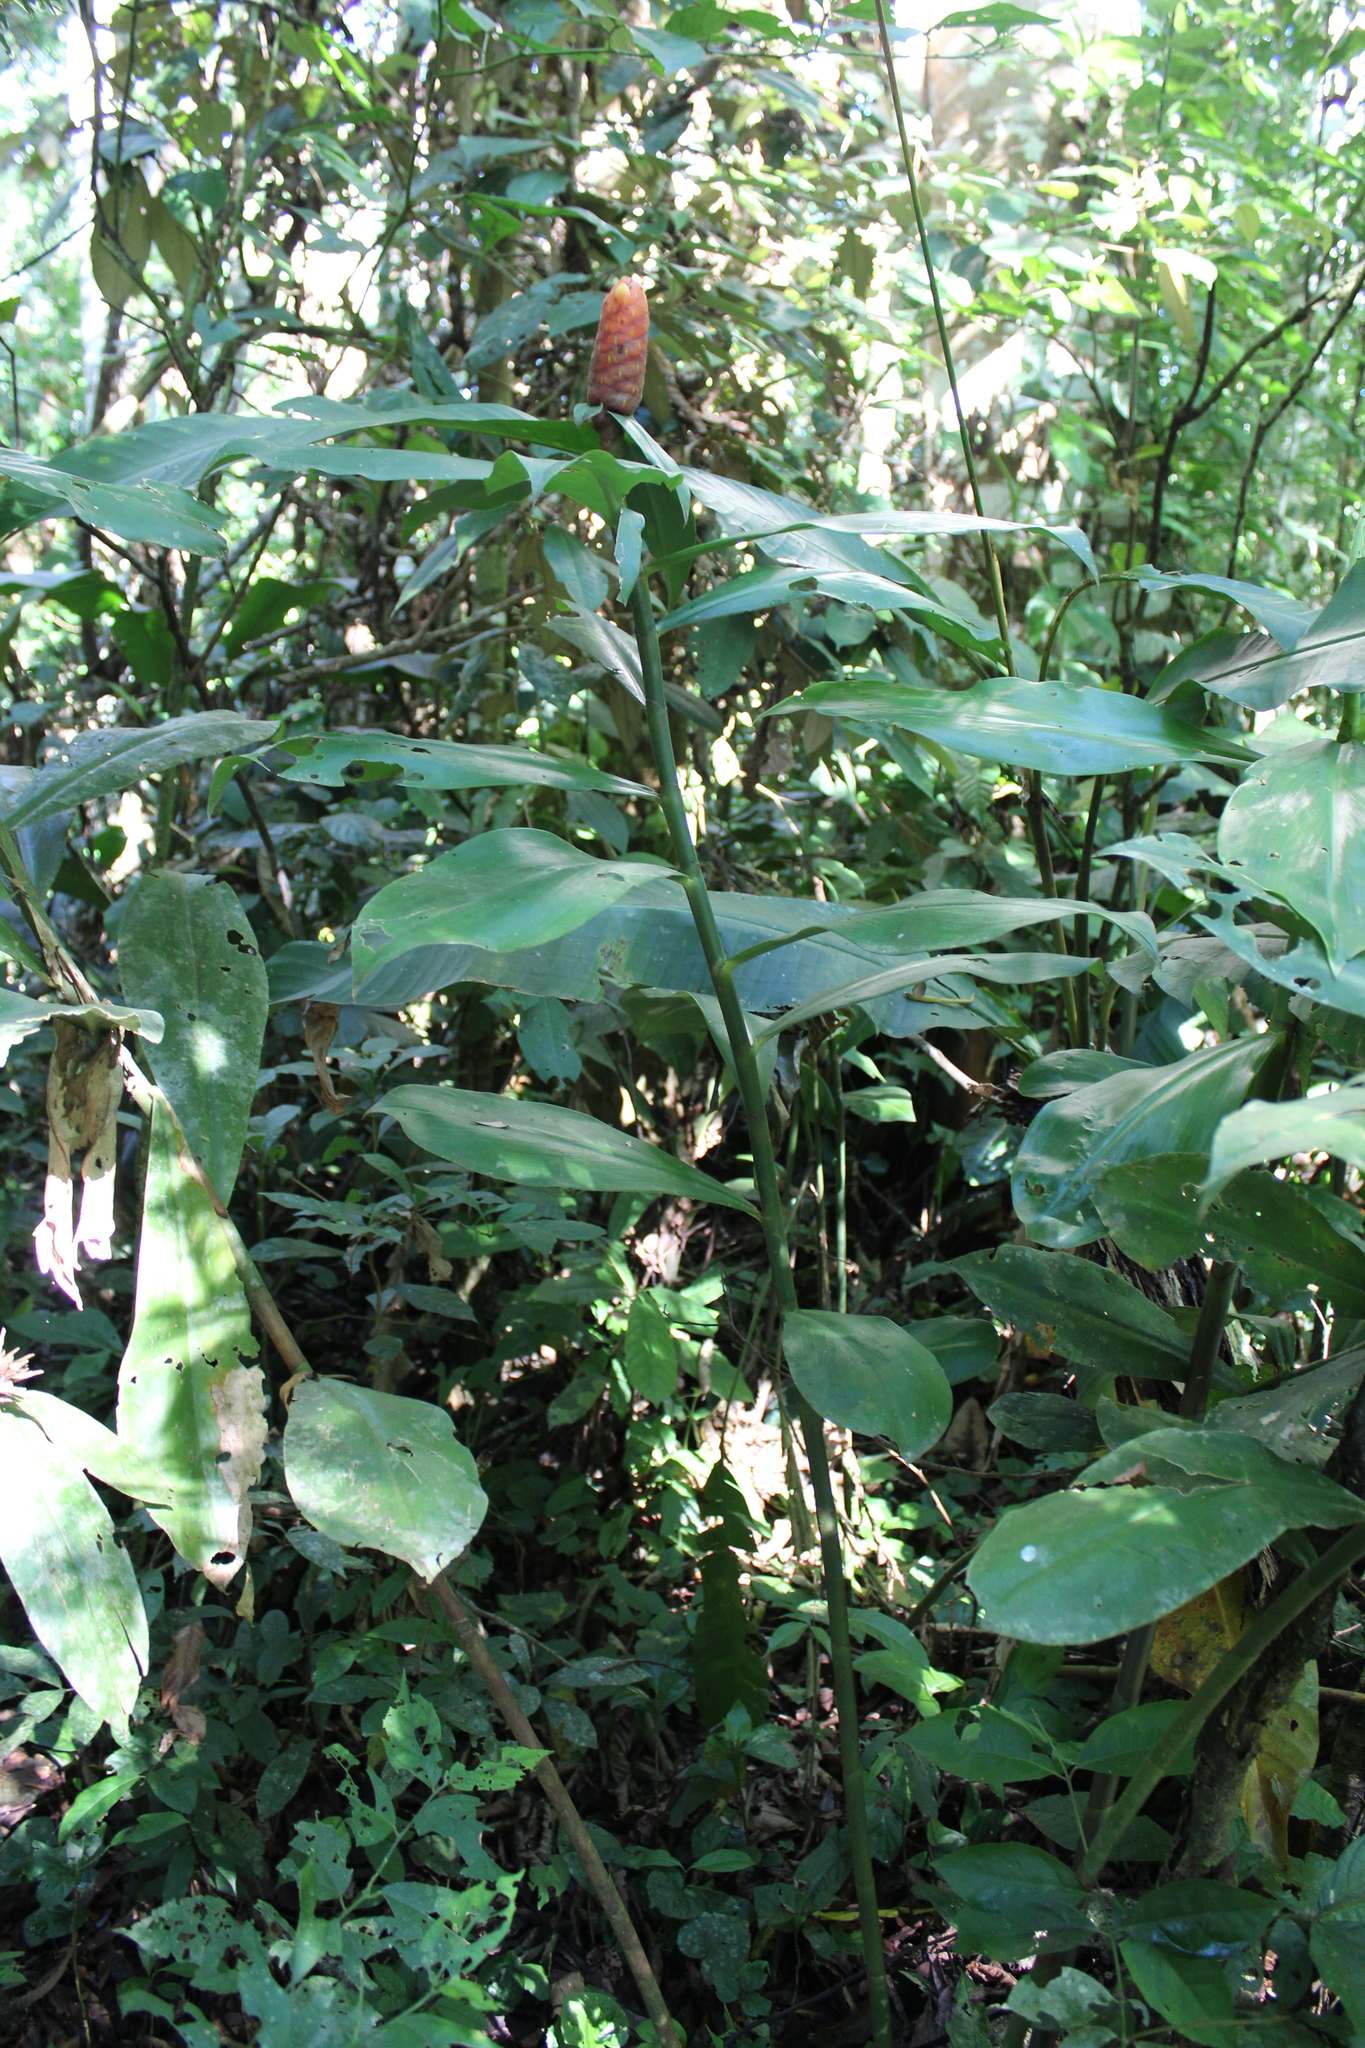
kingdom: Plantae
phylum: Tracheophyta
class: Liliopsida
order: Zingiberales
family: Costaceae
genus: Costus
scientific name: Costus scaber
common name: Spiral head ginger
